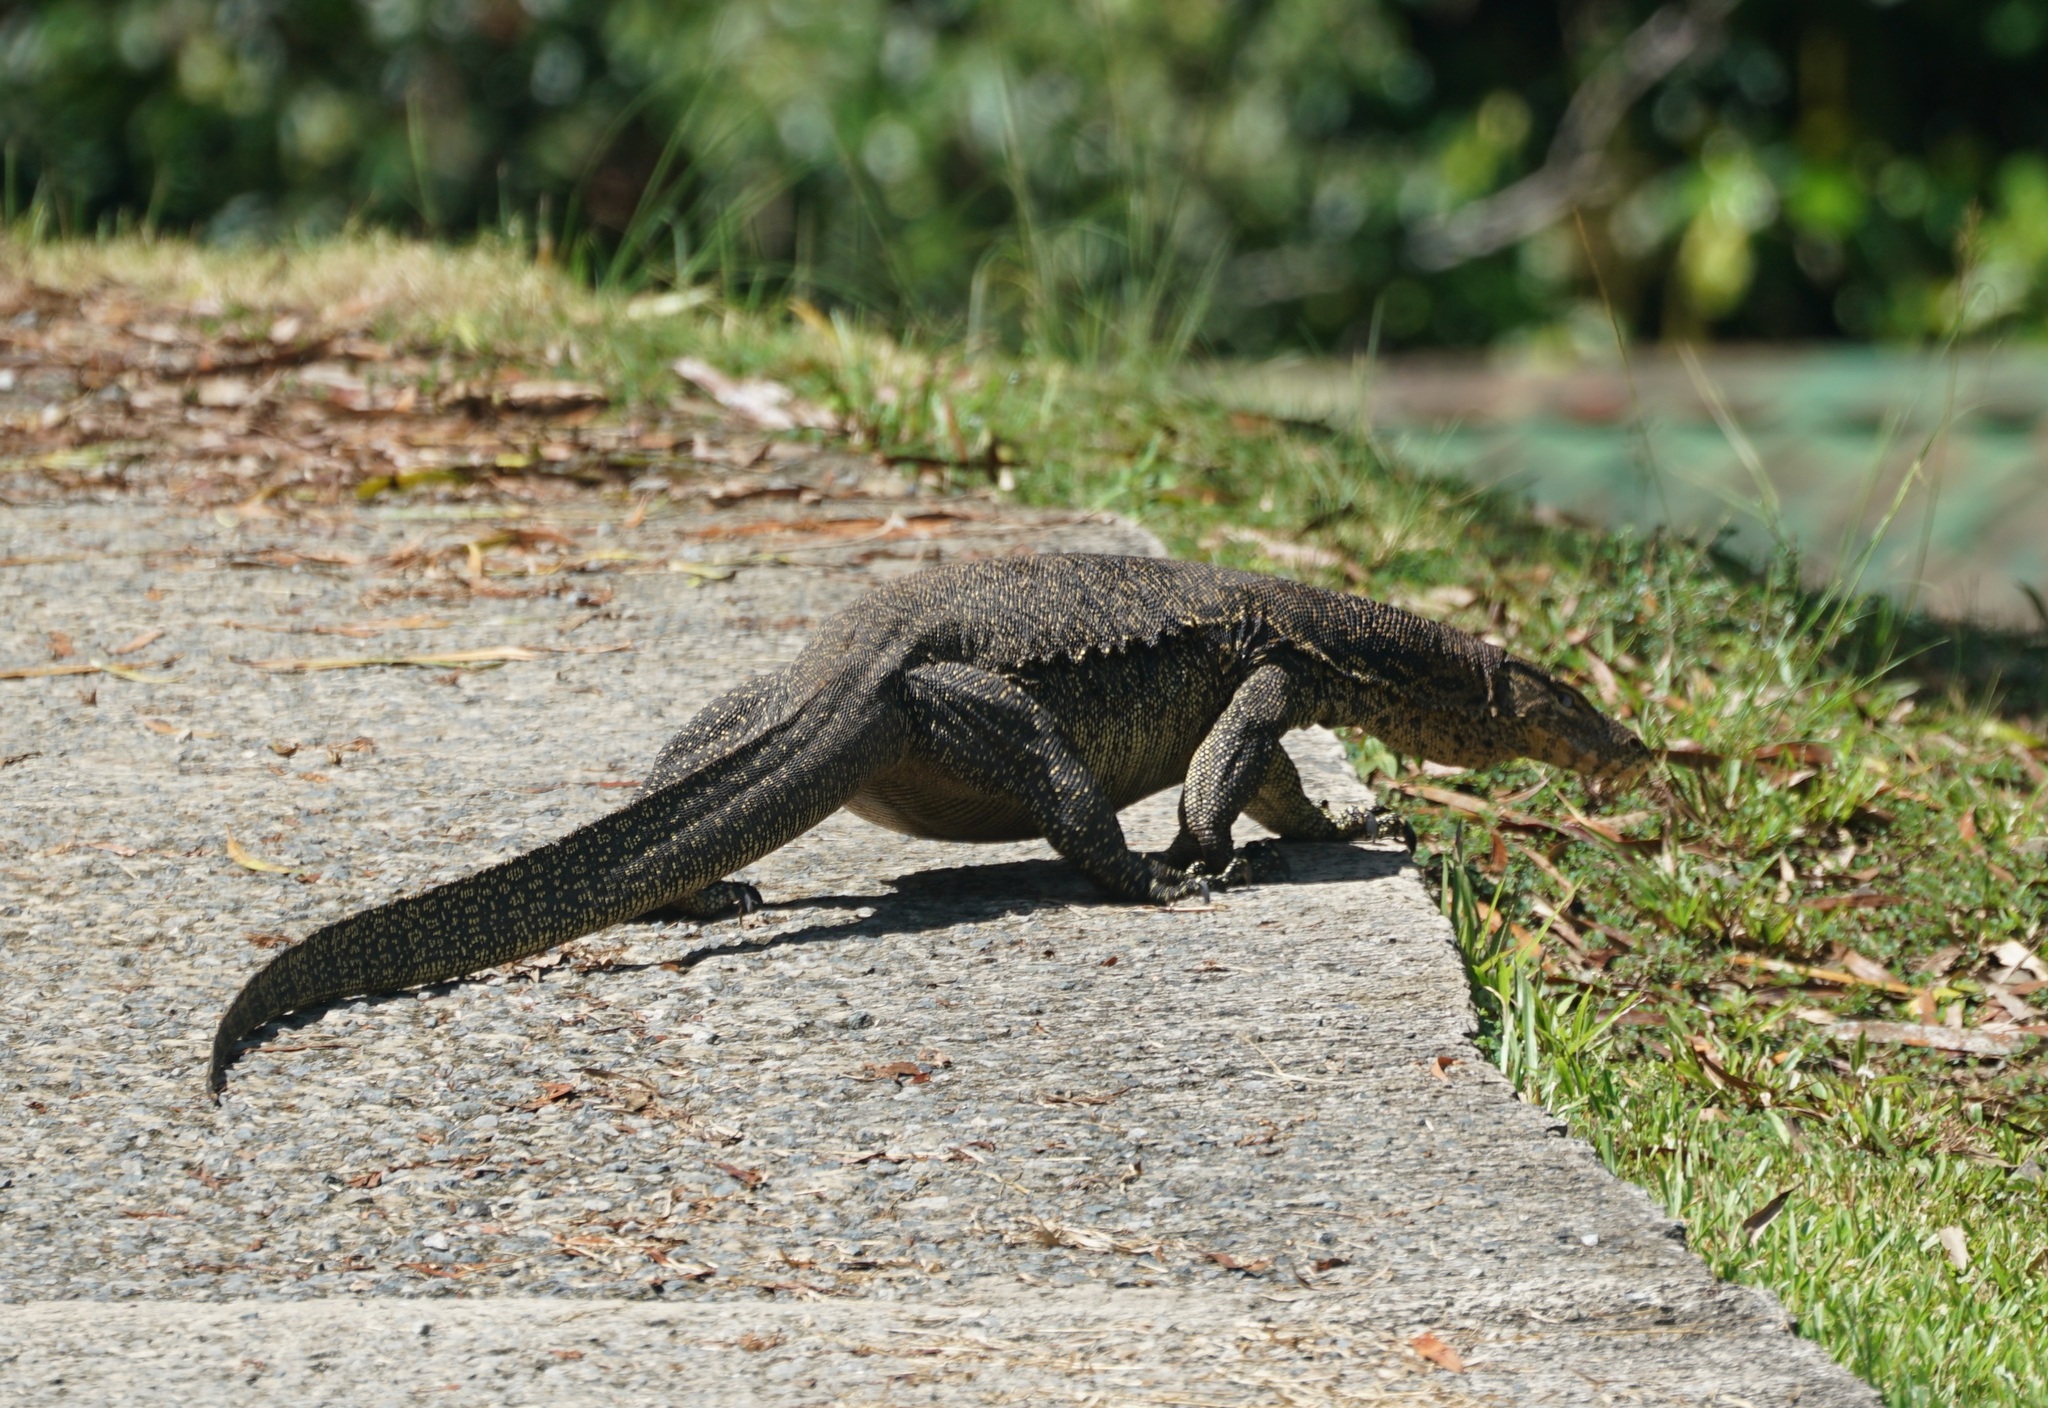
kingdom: Animalia
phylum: Chordata
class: Squamata
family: Varanidae
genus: Varanus
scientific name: Varanus salvator
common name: Common water monitor
